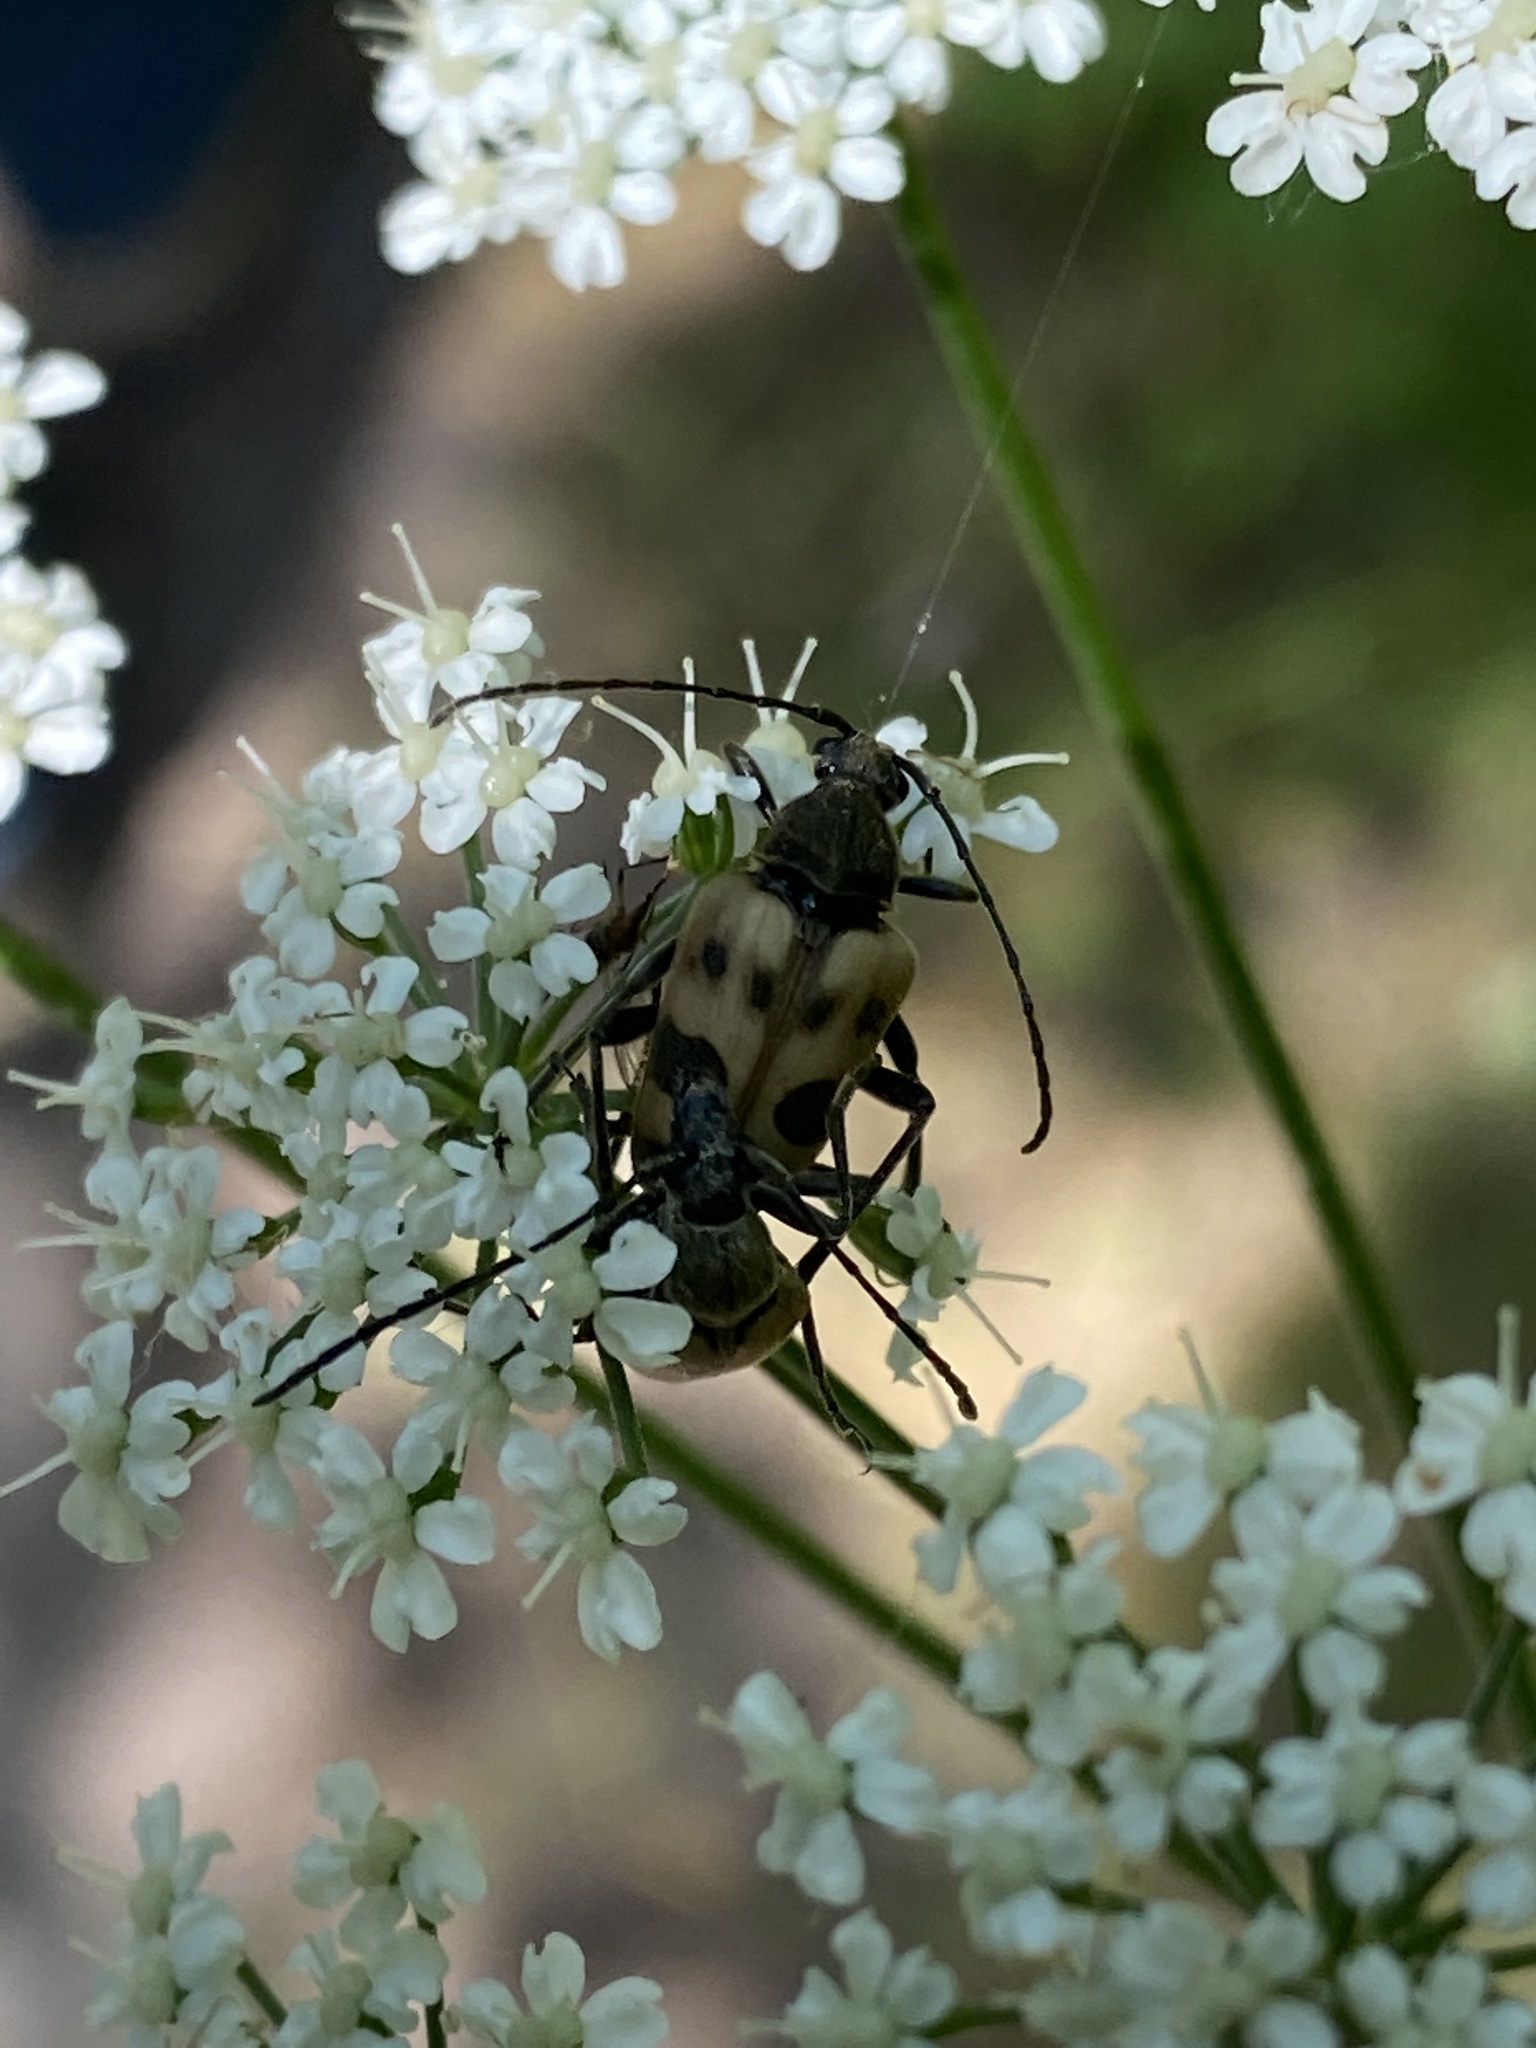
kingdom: Animalia
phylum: Arthropoda
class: Insecta
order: Coleoptera
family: Cerambycidae
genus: Pachytodes
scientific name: Pachytodes cerambyciformis
